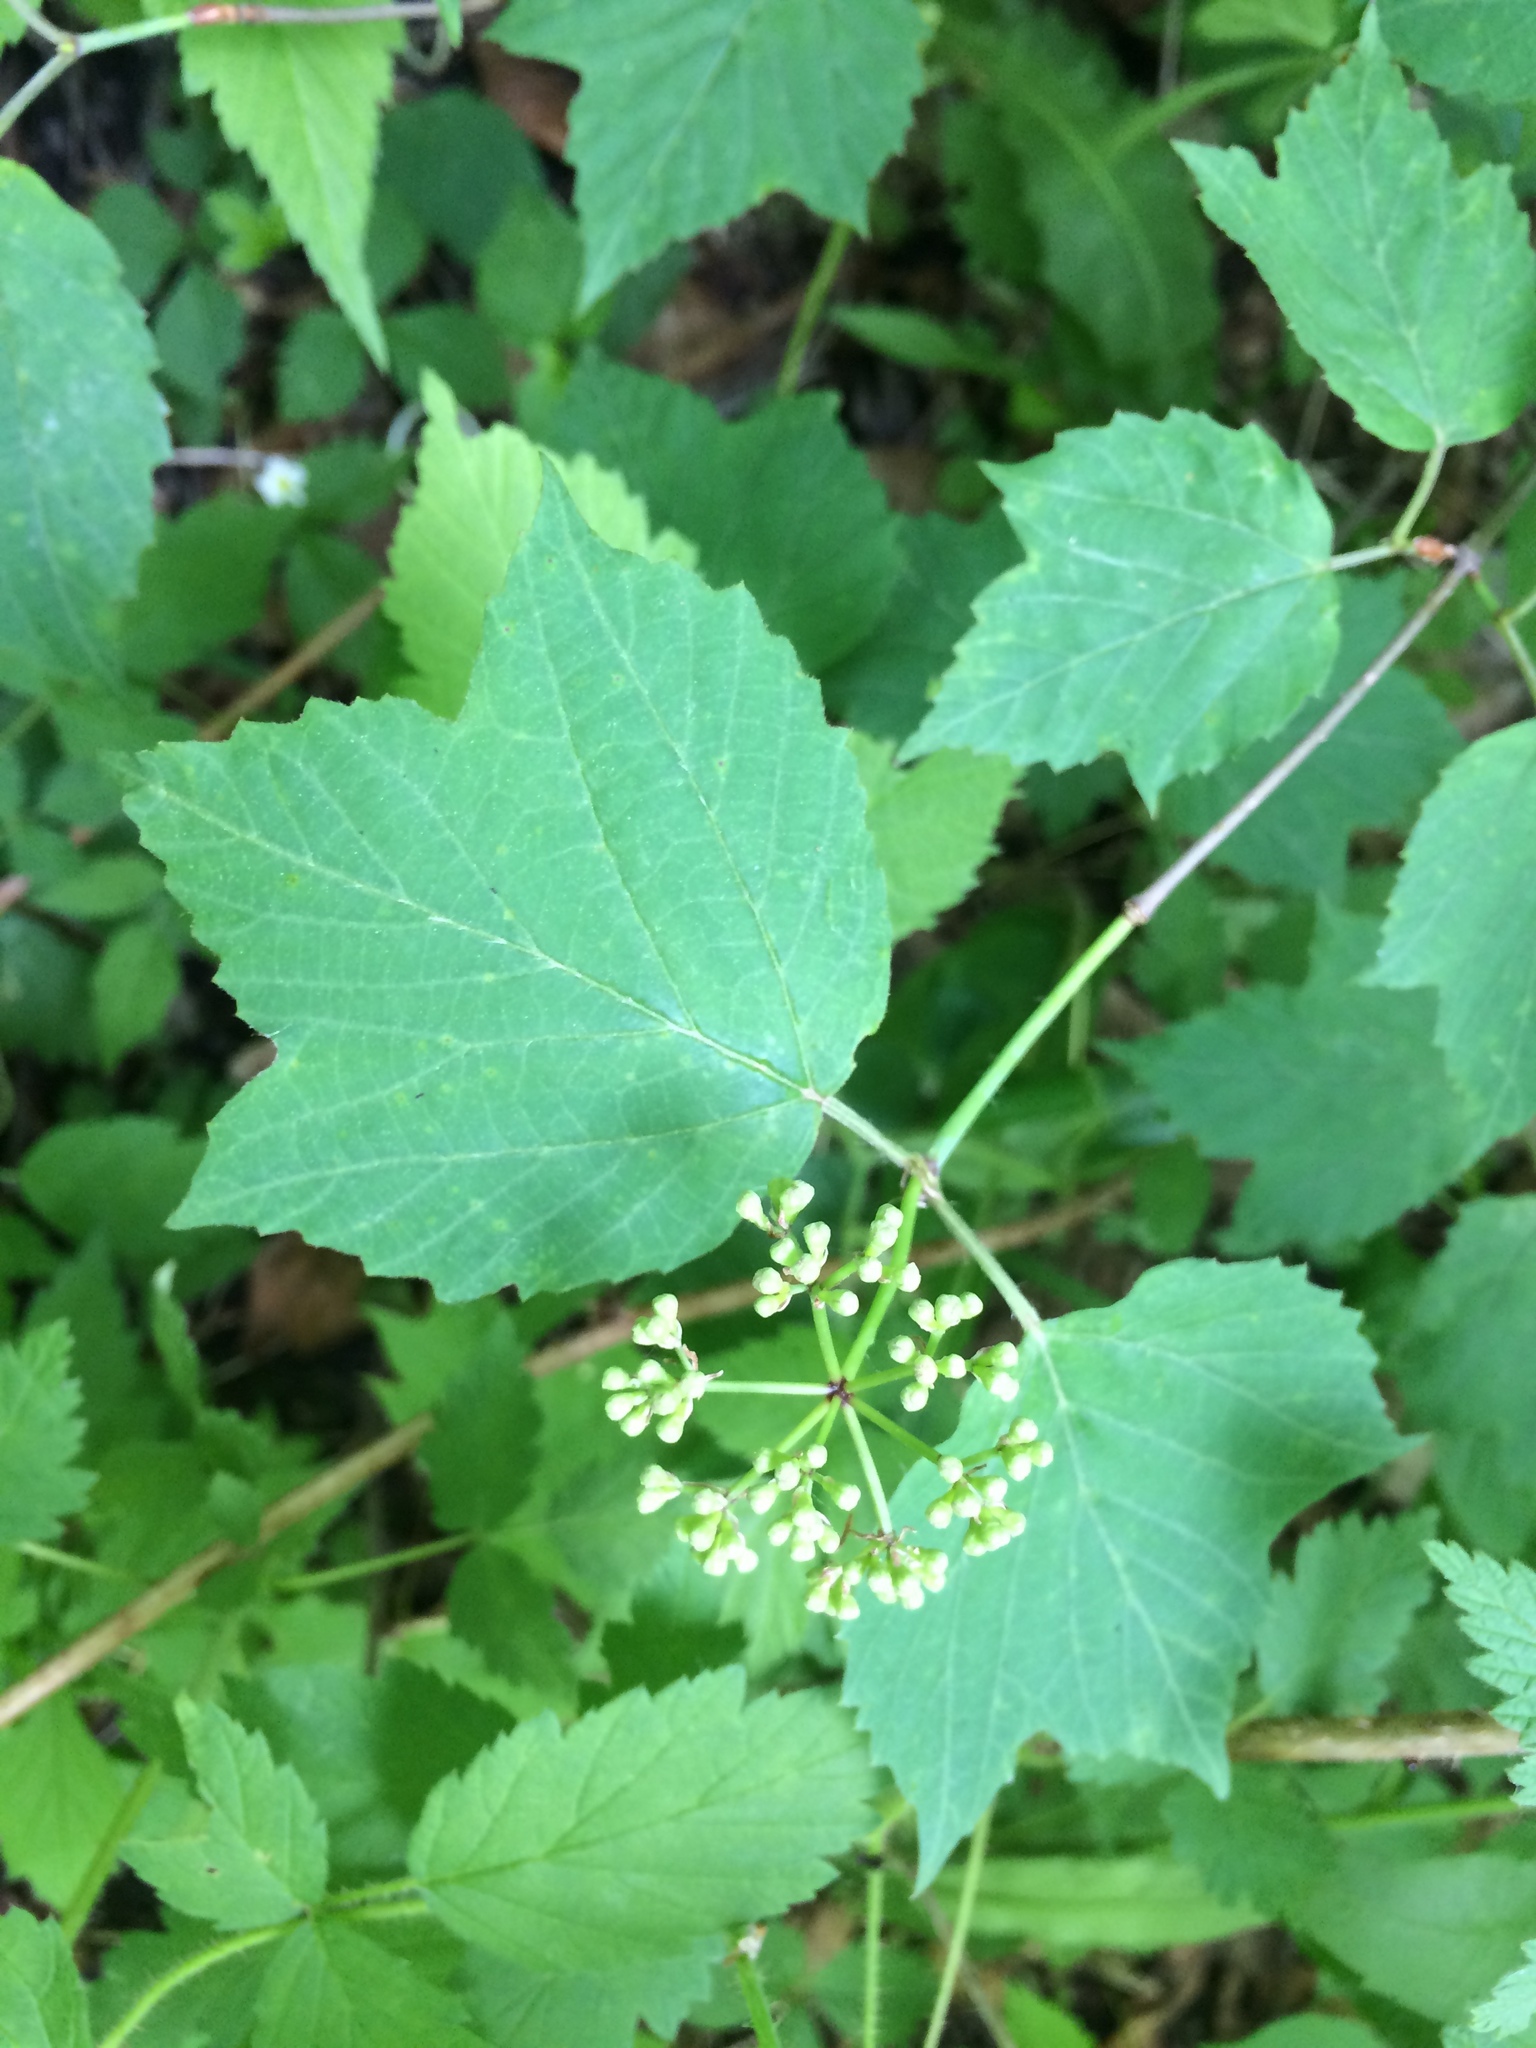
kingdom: Plantae
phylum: Tracheophyta
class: Magnoliopsida
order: Dipsacales
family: Viburnaceae
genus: Viburnum
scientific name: Viburnum acerifolium
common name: Dockmackie
